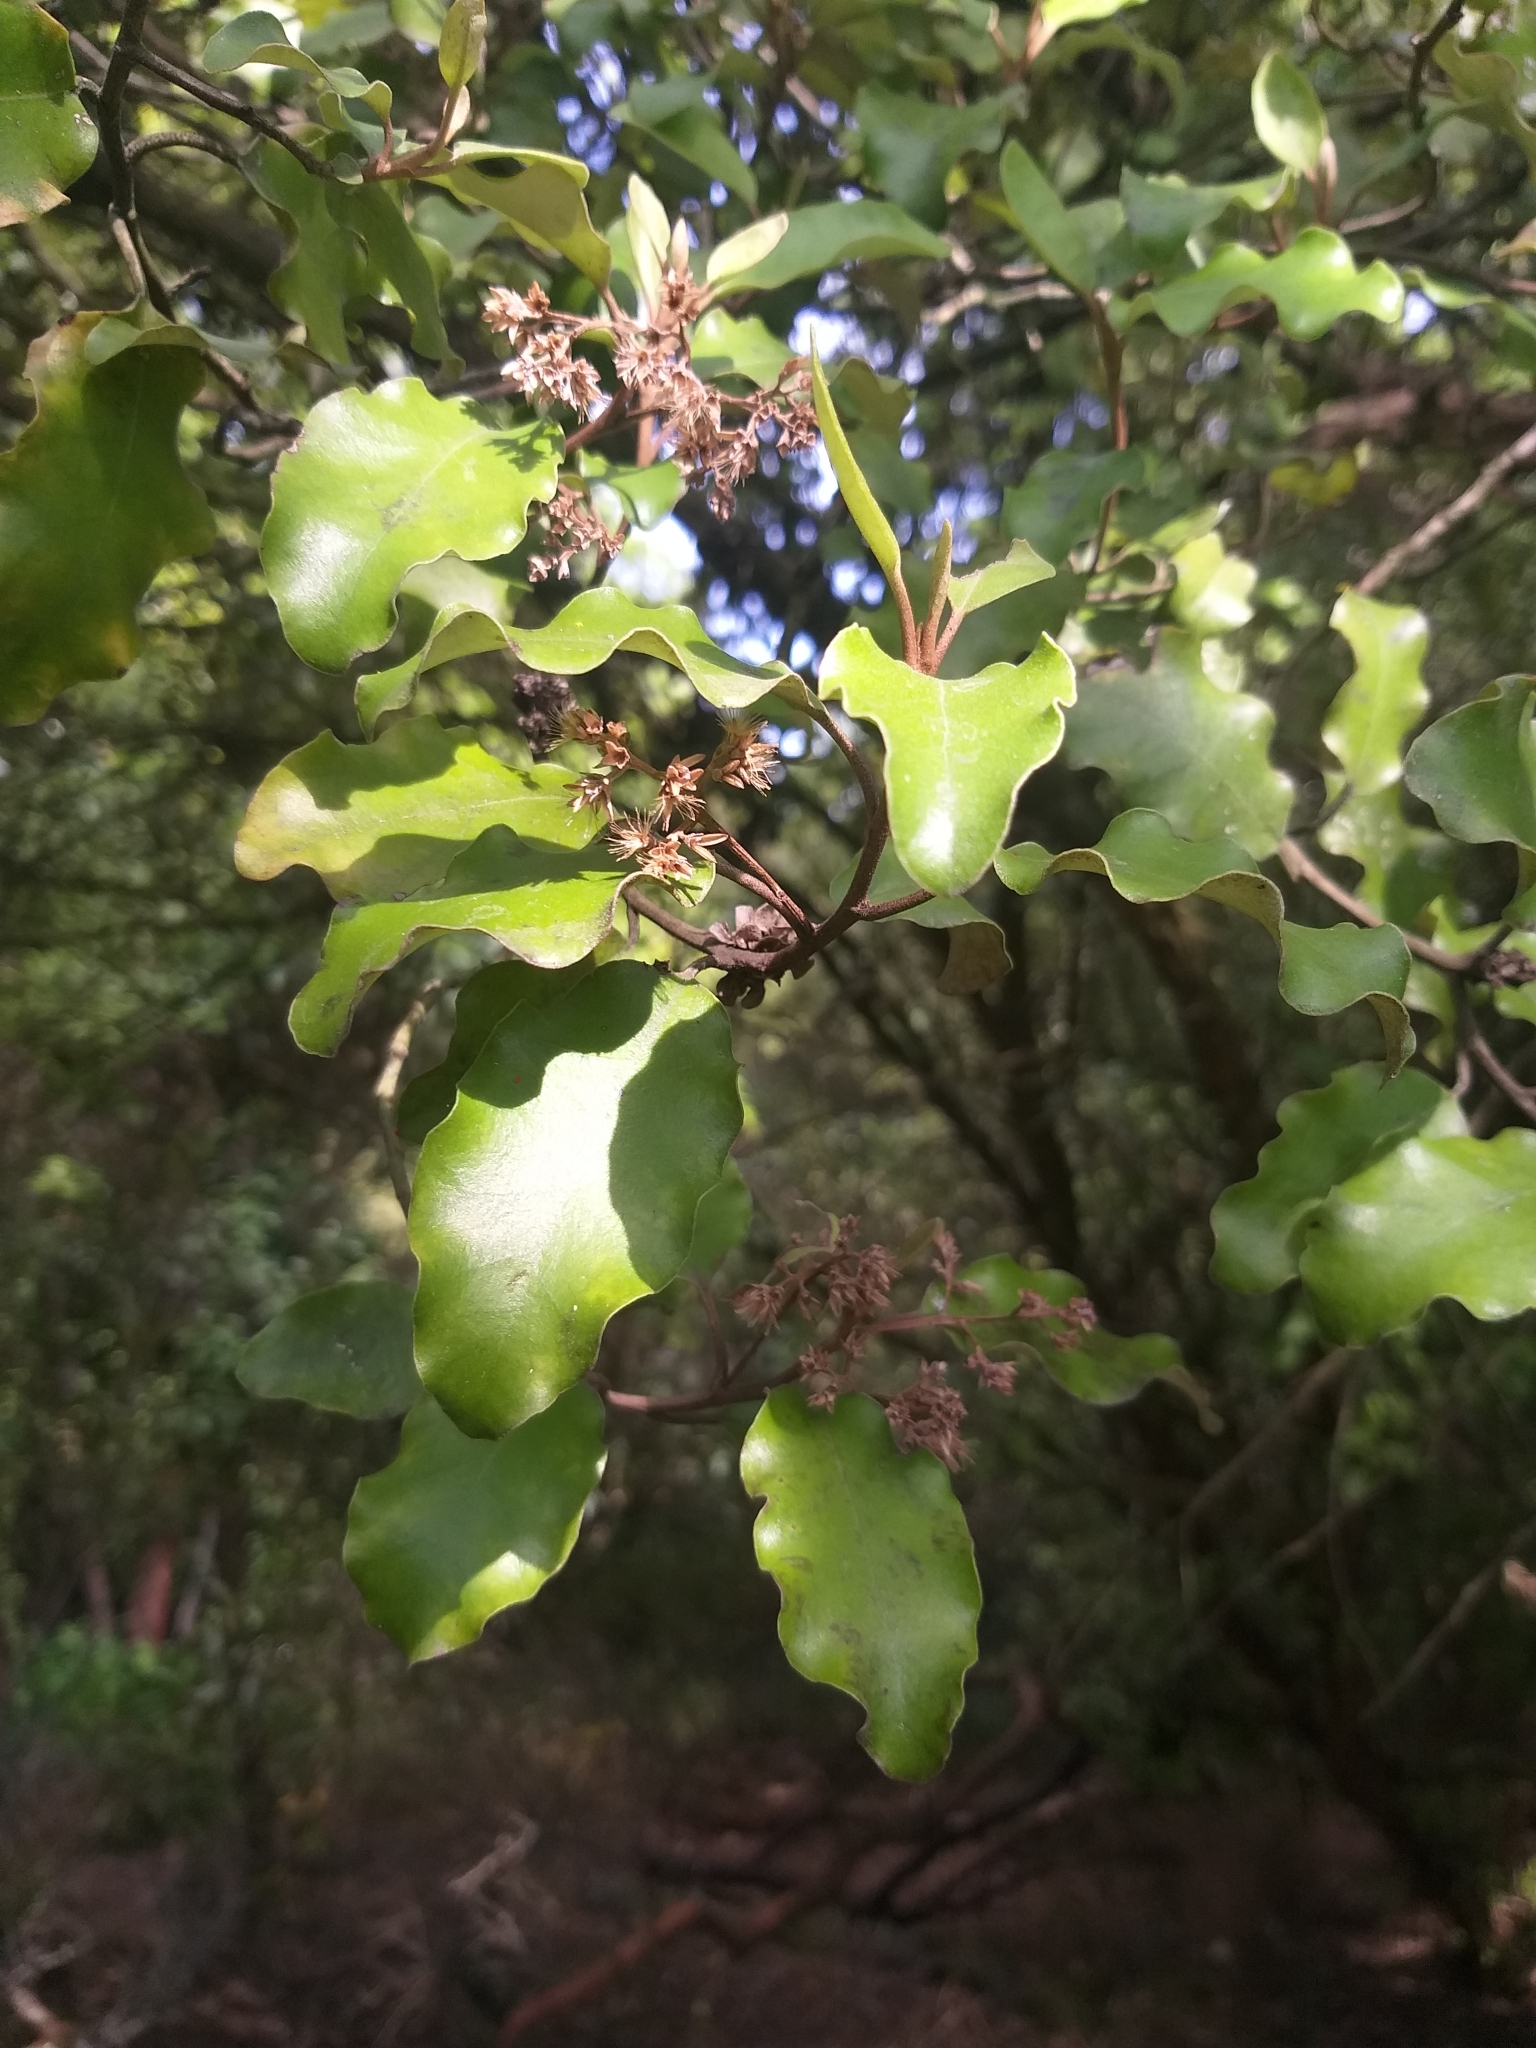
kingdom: Plantae
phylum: Tracheophyta
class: Magnoliopsida
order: Asterales
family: Asteraceae
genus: Olearia
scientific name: Olearia paniculata
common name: Akiraho
